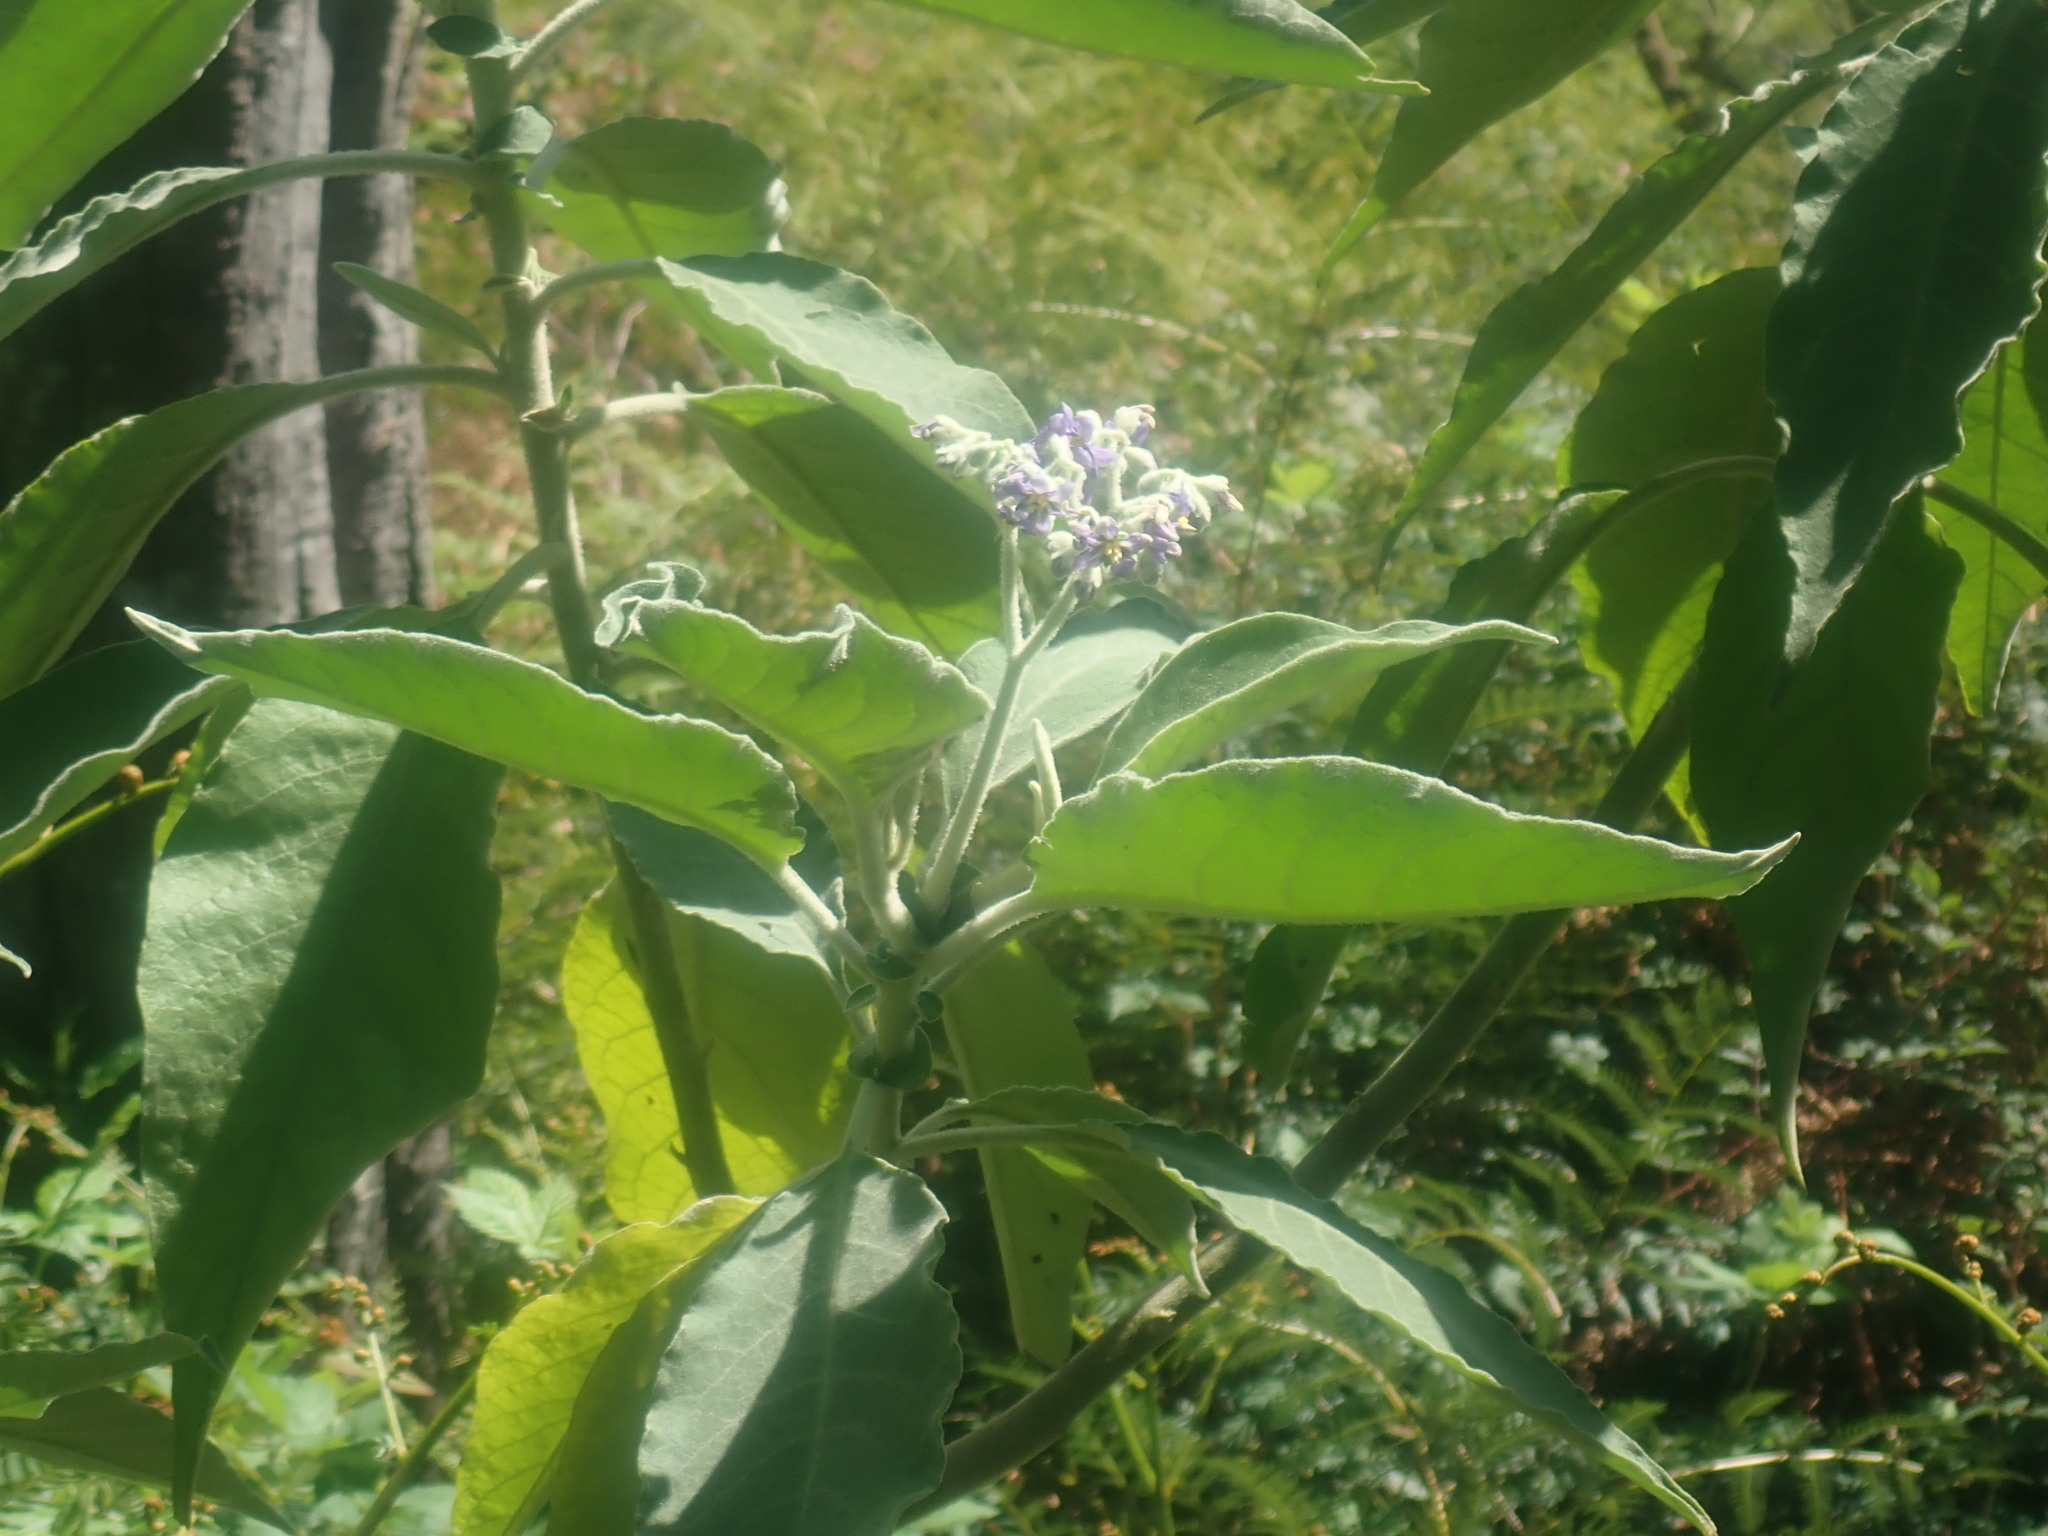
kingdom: Plantae
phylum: Tracheophyta
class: Magnoliopsida
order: Solanales
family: Solanaceae
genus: Solanum
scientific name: Solanum mauritianum
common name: Earleaf nightshade
